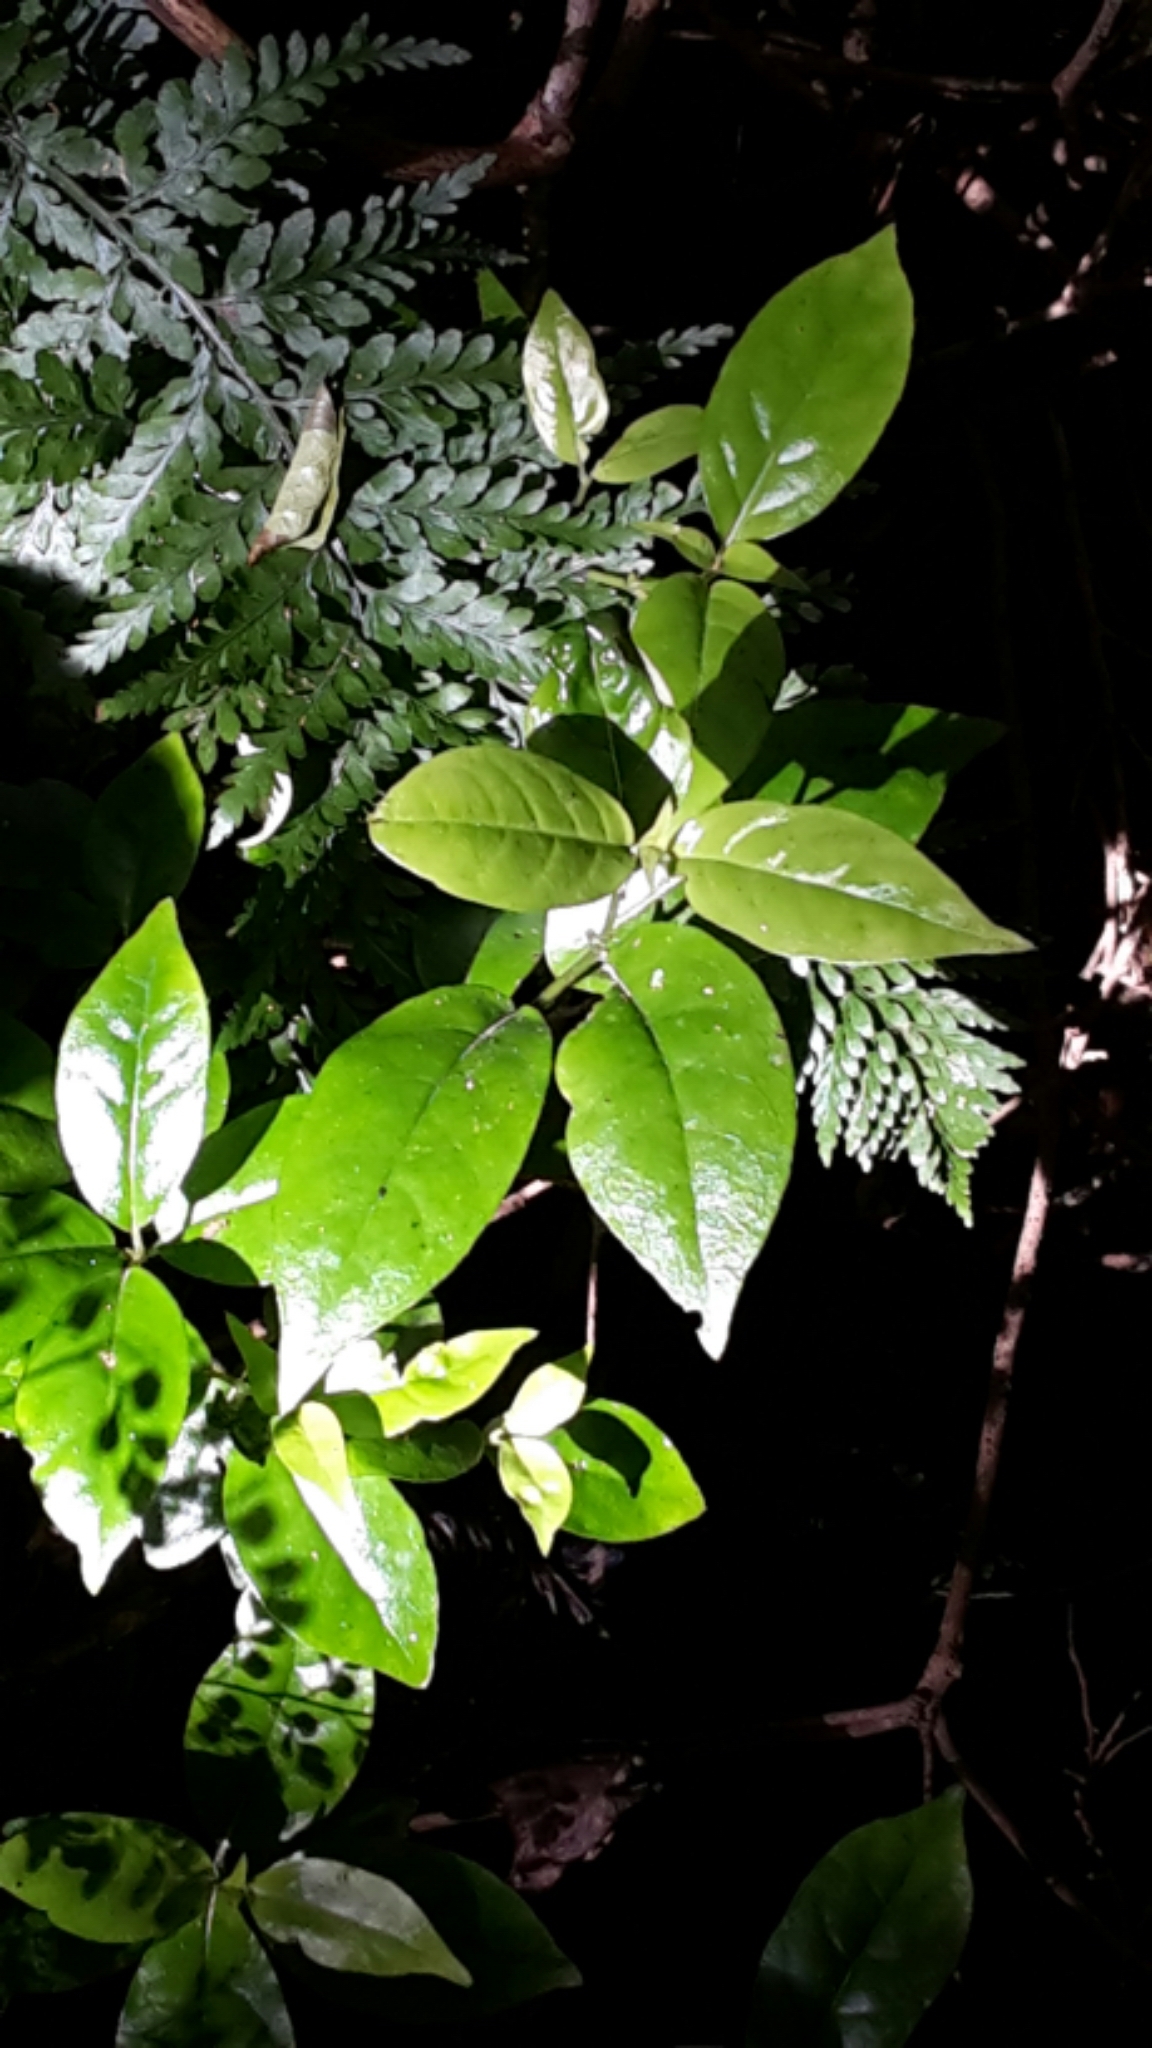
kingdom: Plantae
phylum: Tracheophyta
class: Magnoliopsida
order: Gentianales
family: Loganiaceae
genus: Geniostoma
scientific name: Geniostoma ligustrifolium
